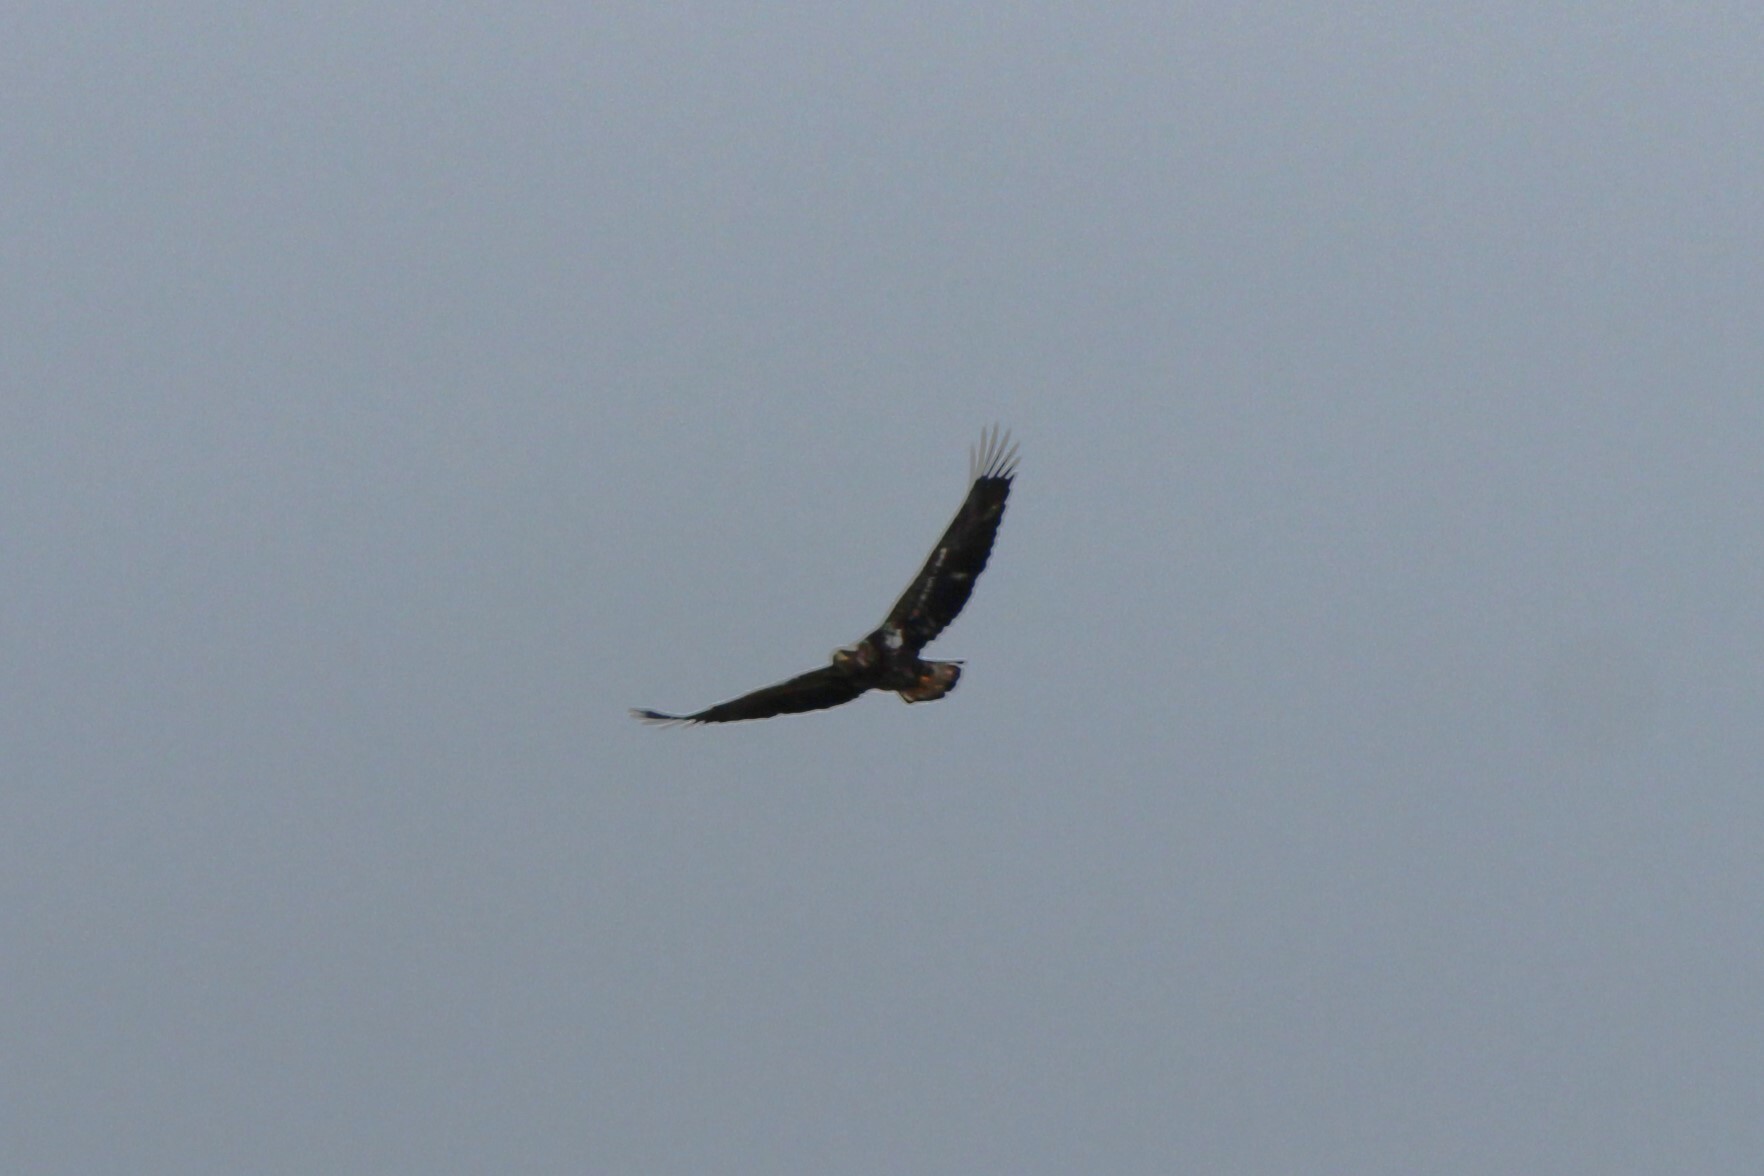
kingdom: Animalia
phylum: Chordata
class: Aves
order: Accipitriformes
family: Accipitridae
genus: Haliaeetus
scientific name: Haliaeetus leucocephalus
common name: Bald eagle
